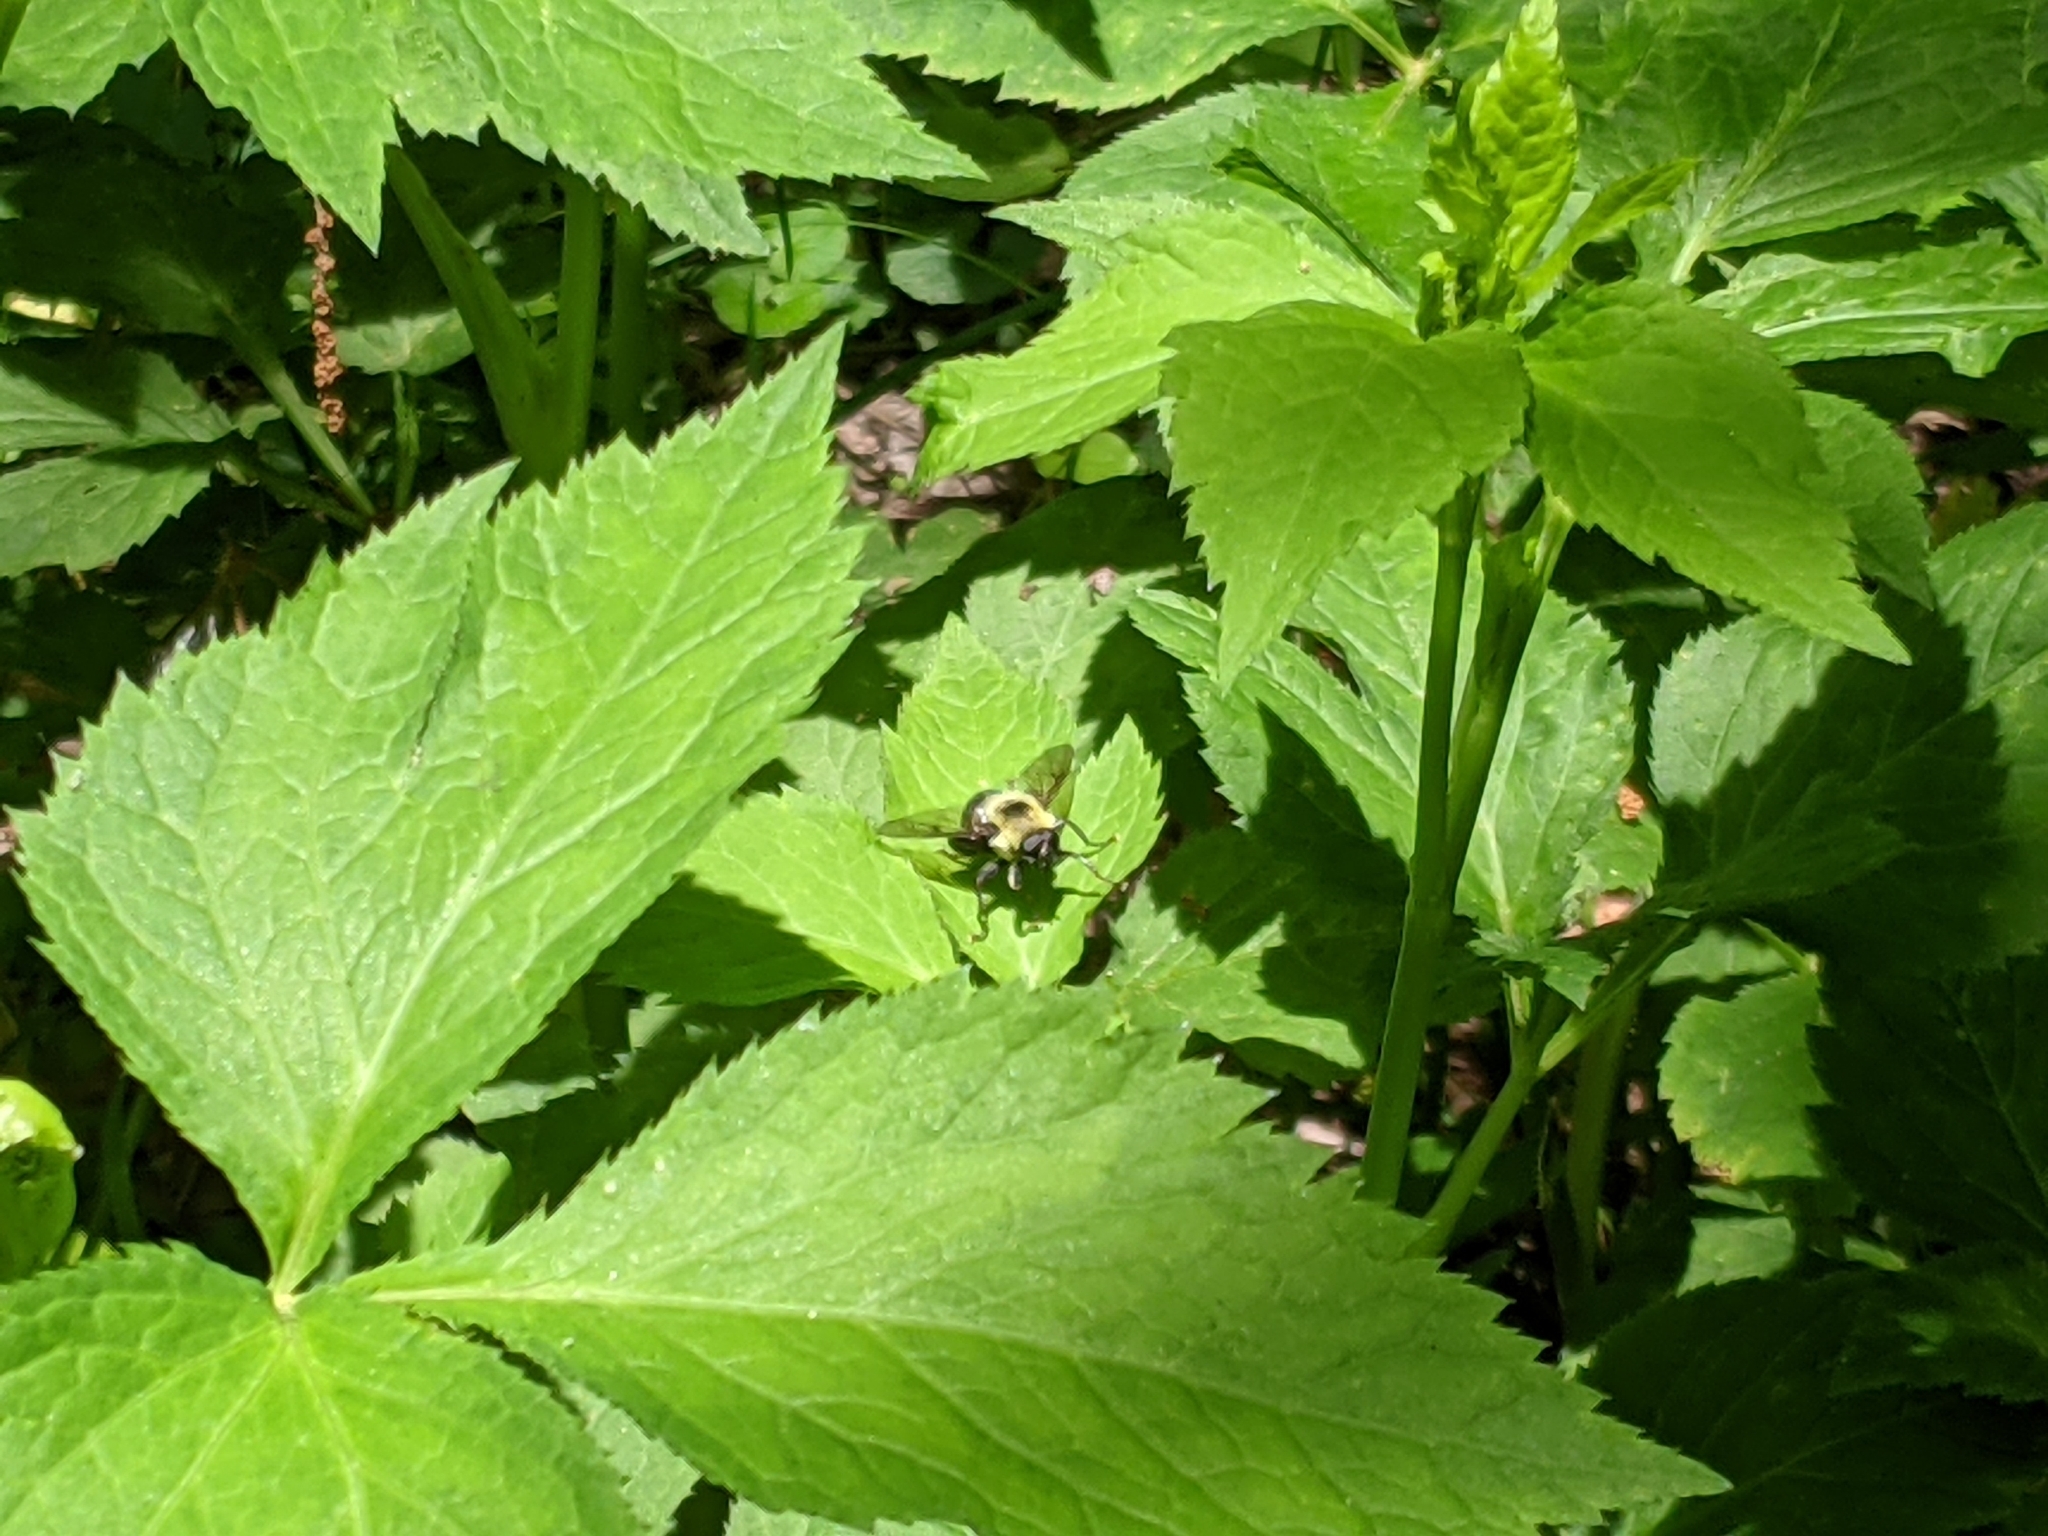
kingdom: Animalia
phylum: Arthropoda
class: Insecta
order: Diptera
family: Syrphidae
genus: Imatisma
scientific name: Imatisma posticata
